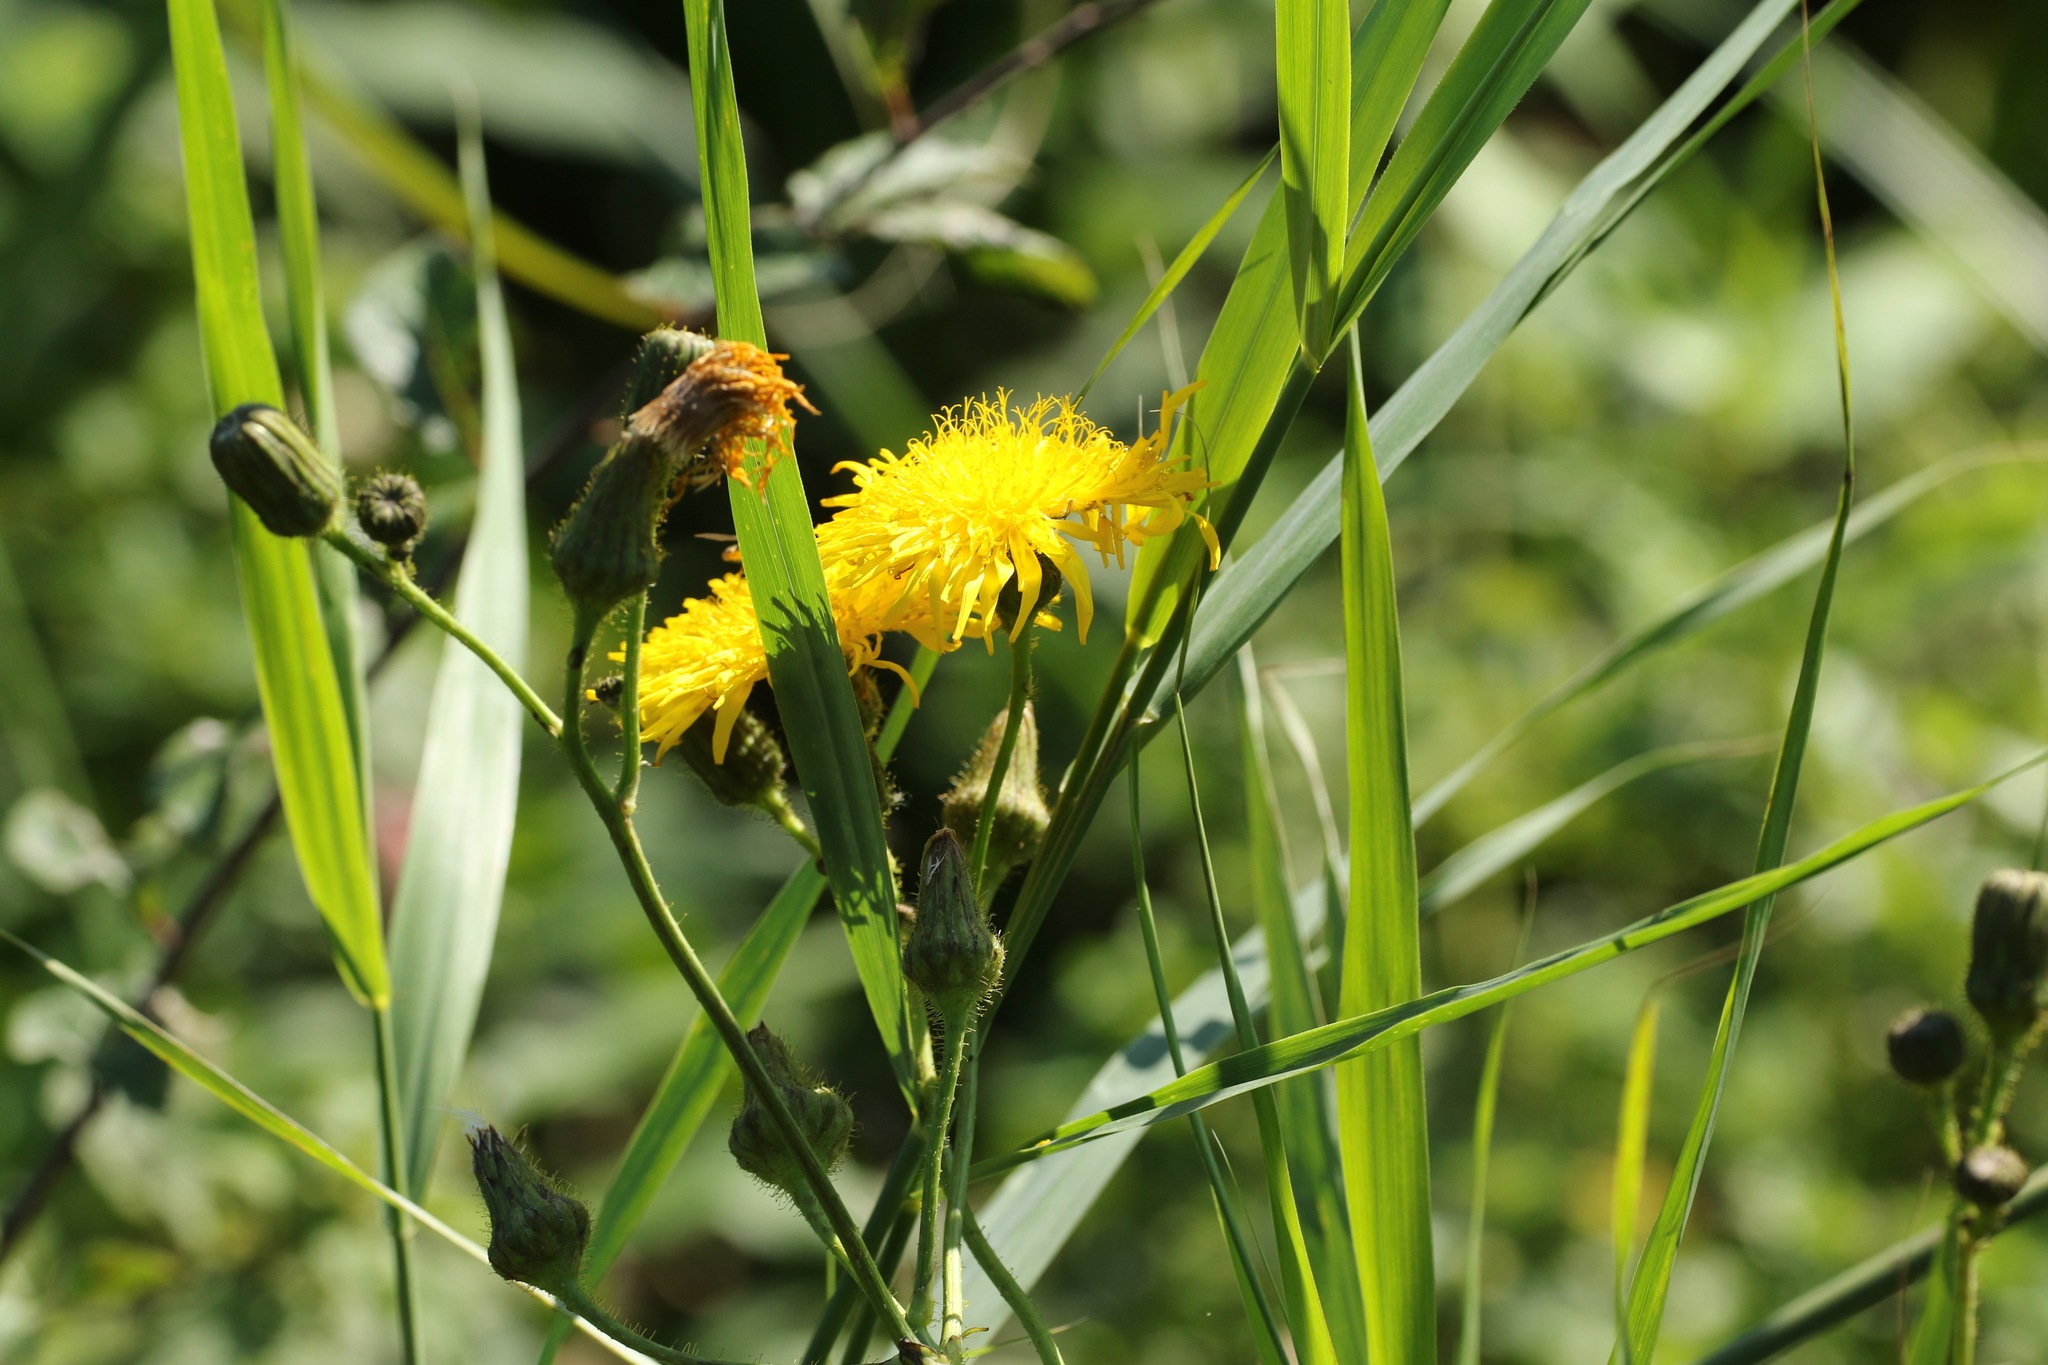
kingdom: Plantae
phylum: Tracheophyta
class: Magnoliopsida
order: Asterales
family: Asteraceae
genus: Sonchus
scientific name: Sonchus arvensis
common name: Perennial sow-thistle
